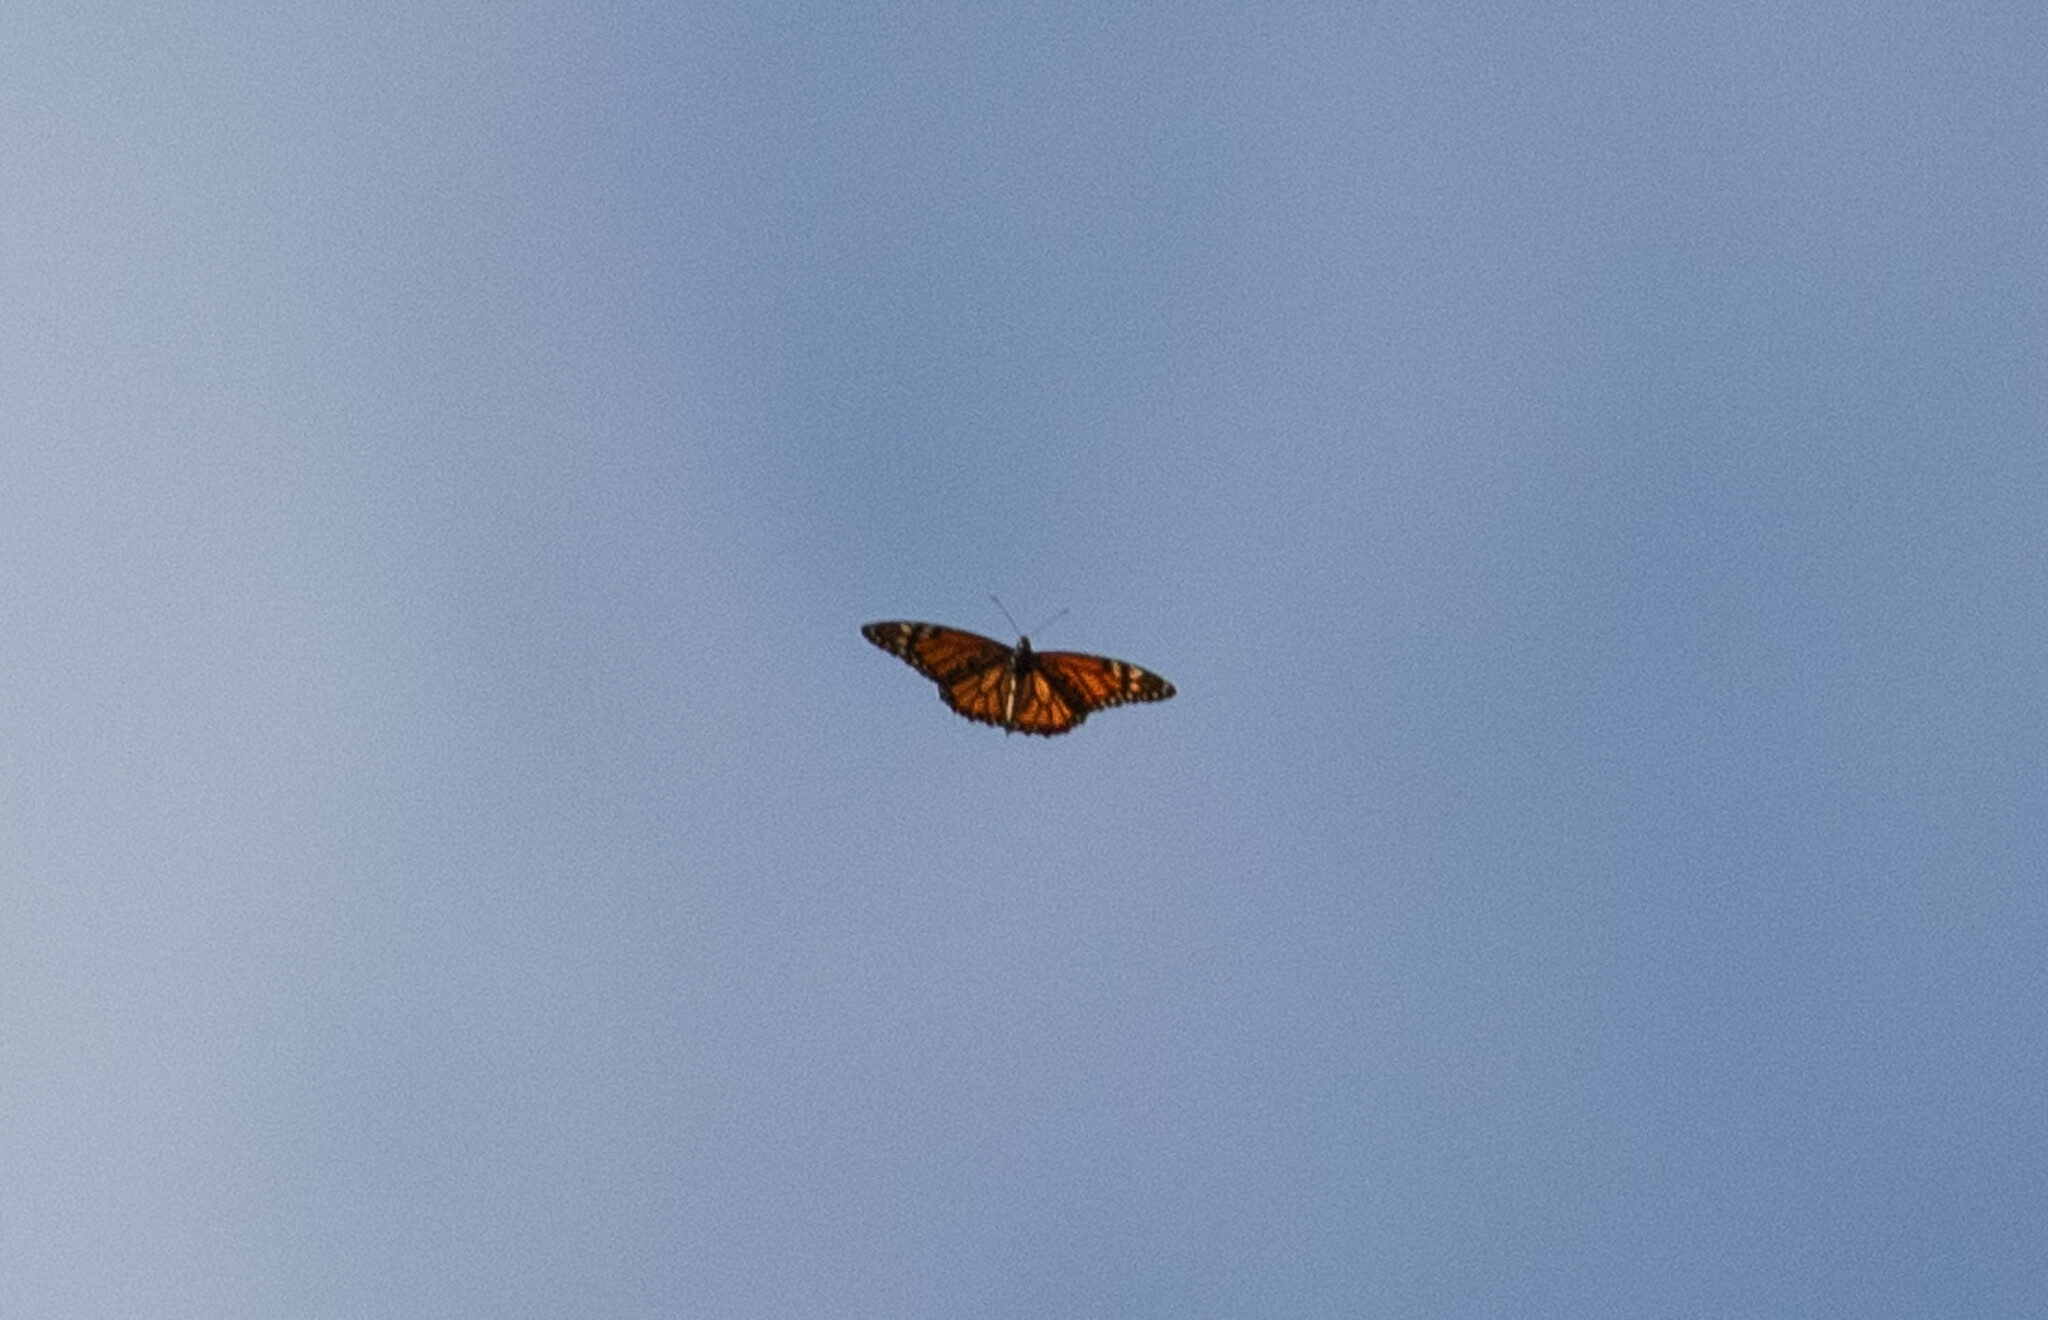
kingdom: Animalia
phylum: Arthropoda
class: Insecta
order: Lepidoptera
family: Nymphalidae
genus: Danaus
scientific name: Danaus plexippus
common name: Monarch
